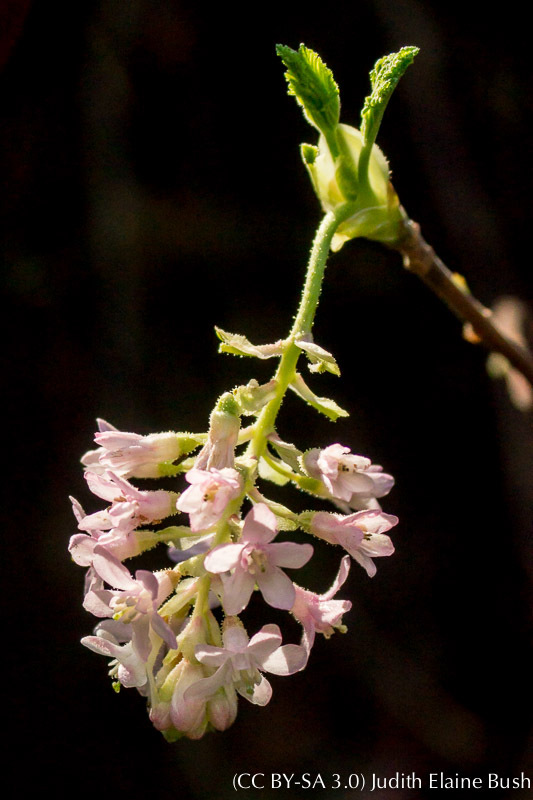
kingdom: Plantae
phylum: Tracheophyta
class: Magnoliopsida
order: Saxifragales
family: Grossulariaceae
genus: Ribes
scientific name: Ribes sanguineum
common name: Flowering currant
